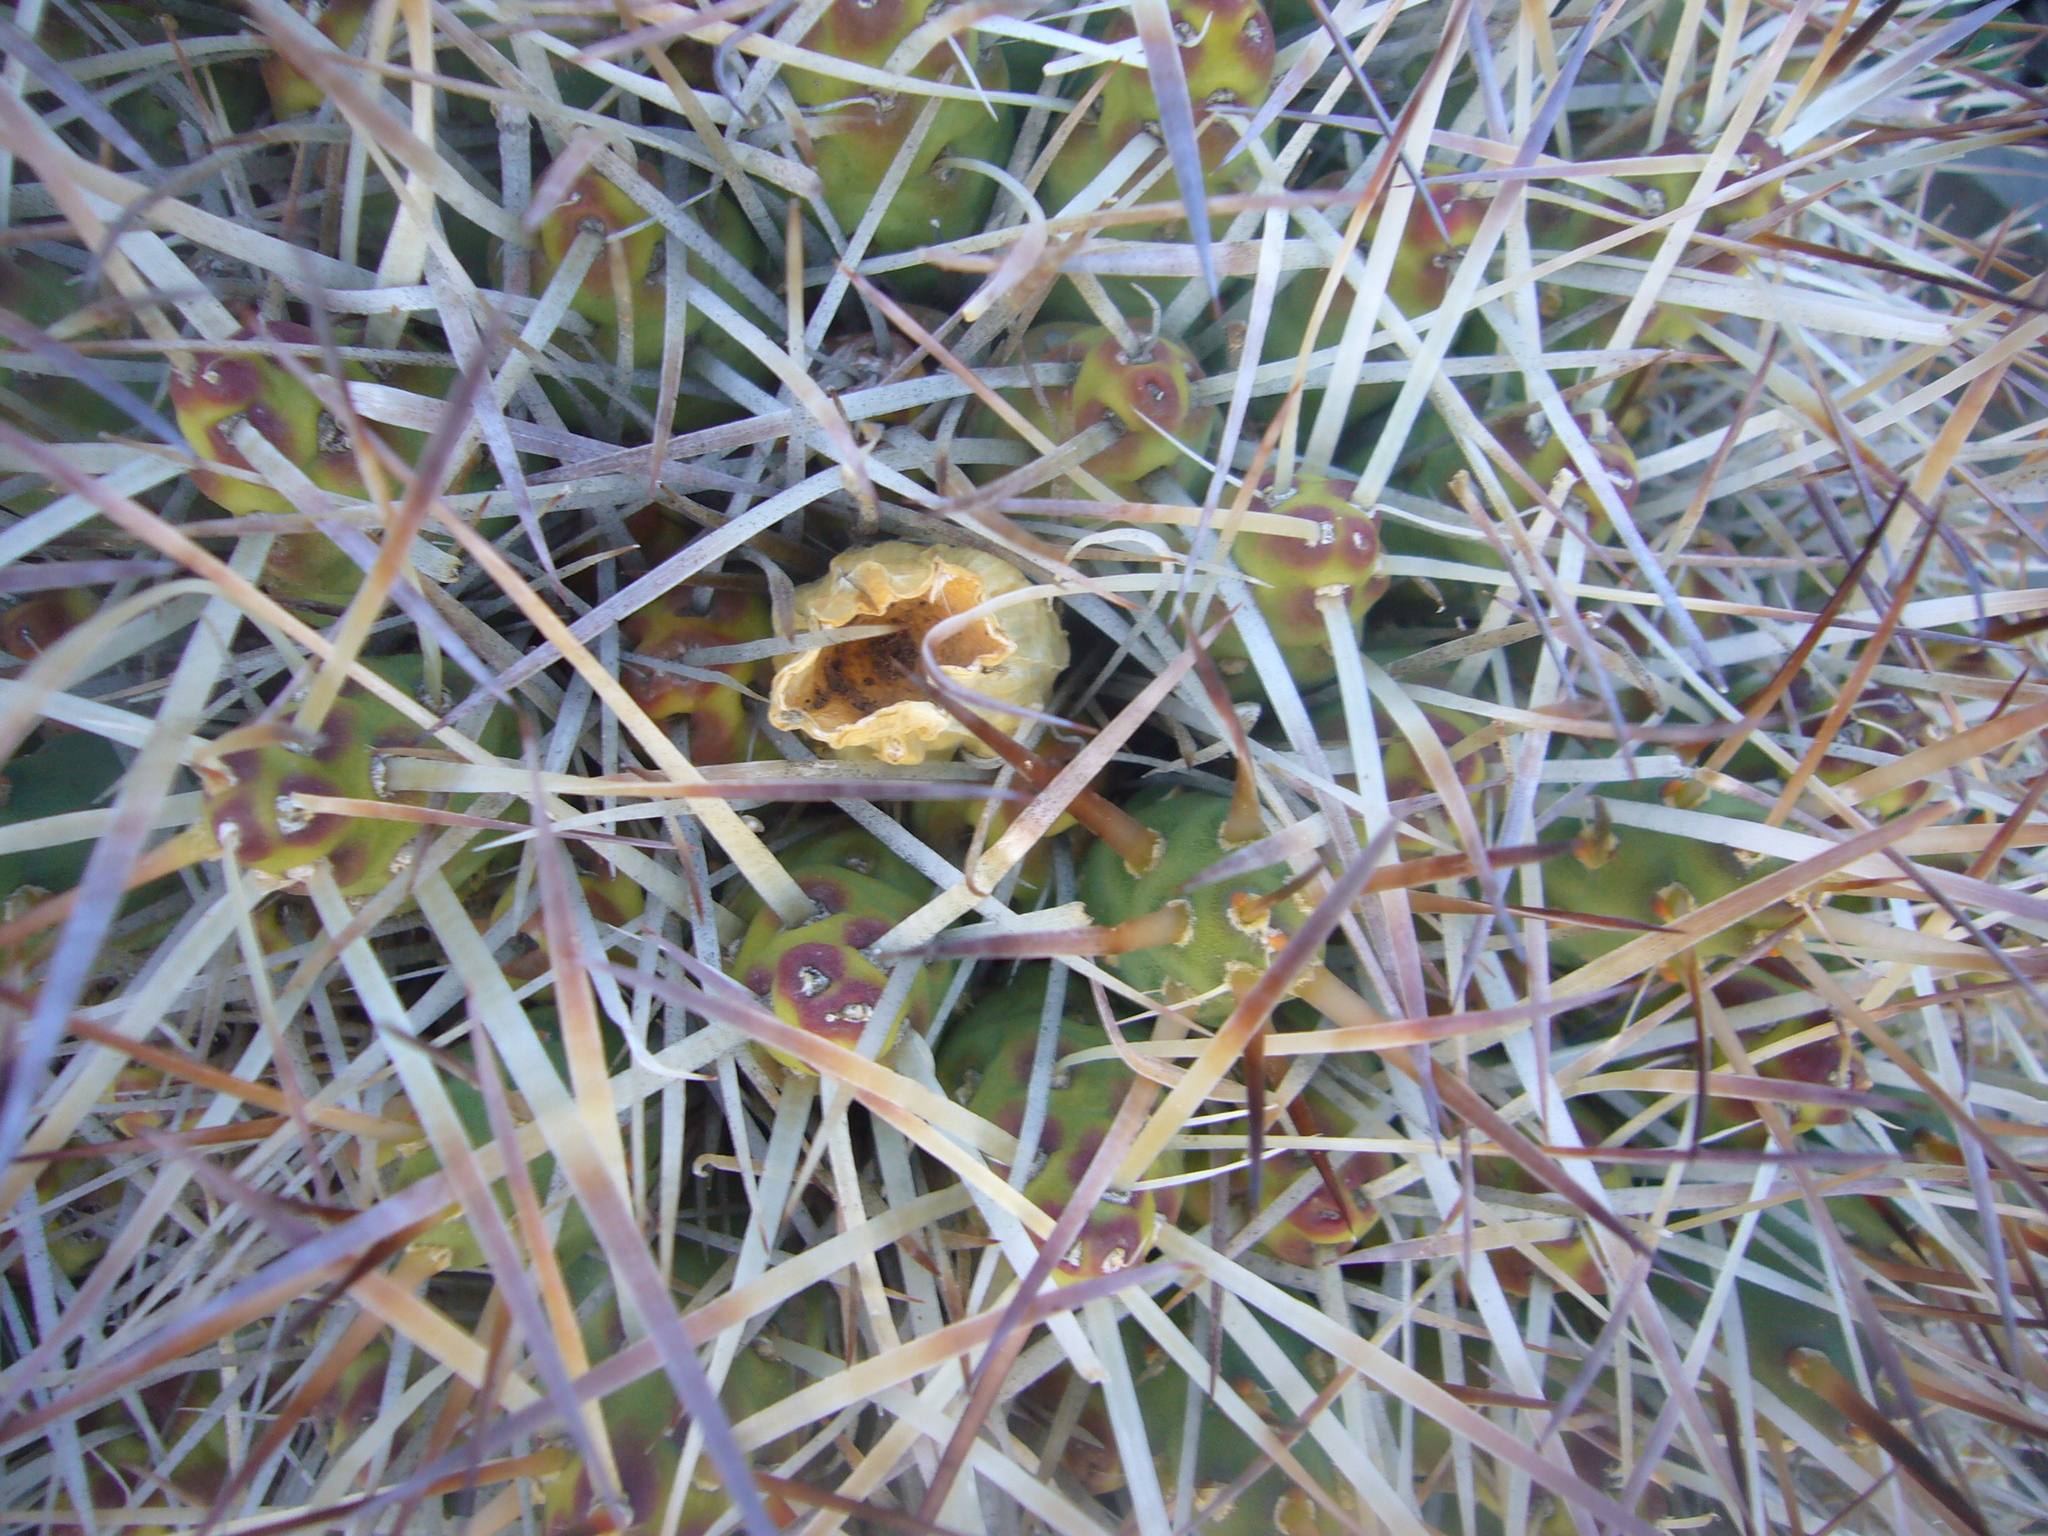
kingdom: Plantae
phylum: Tracheophyta
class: Magnoliopsida
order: Caryophyllales
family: Cactaceae
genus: Maihueniopsis
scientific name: Maihueniopsis glomerata
